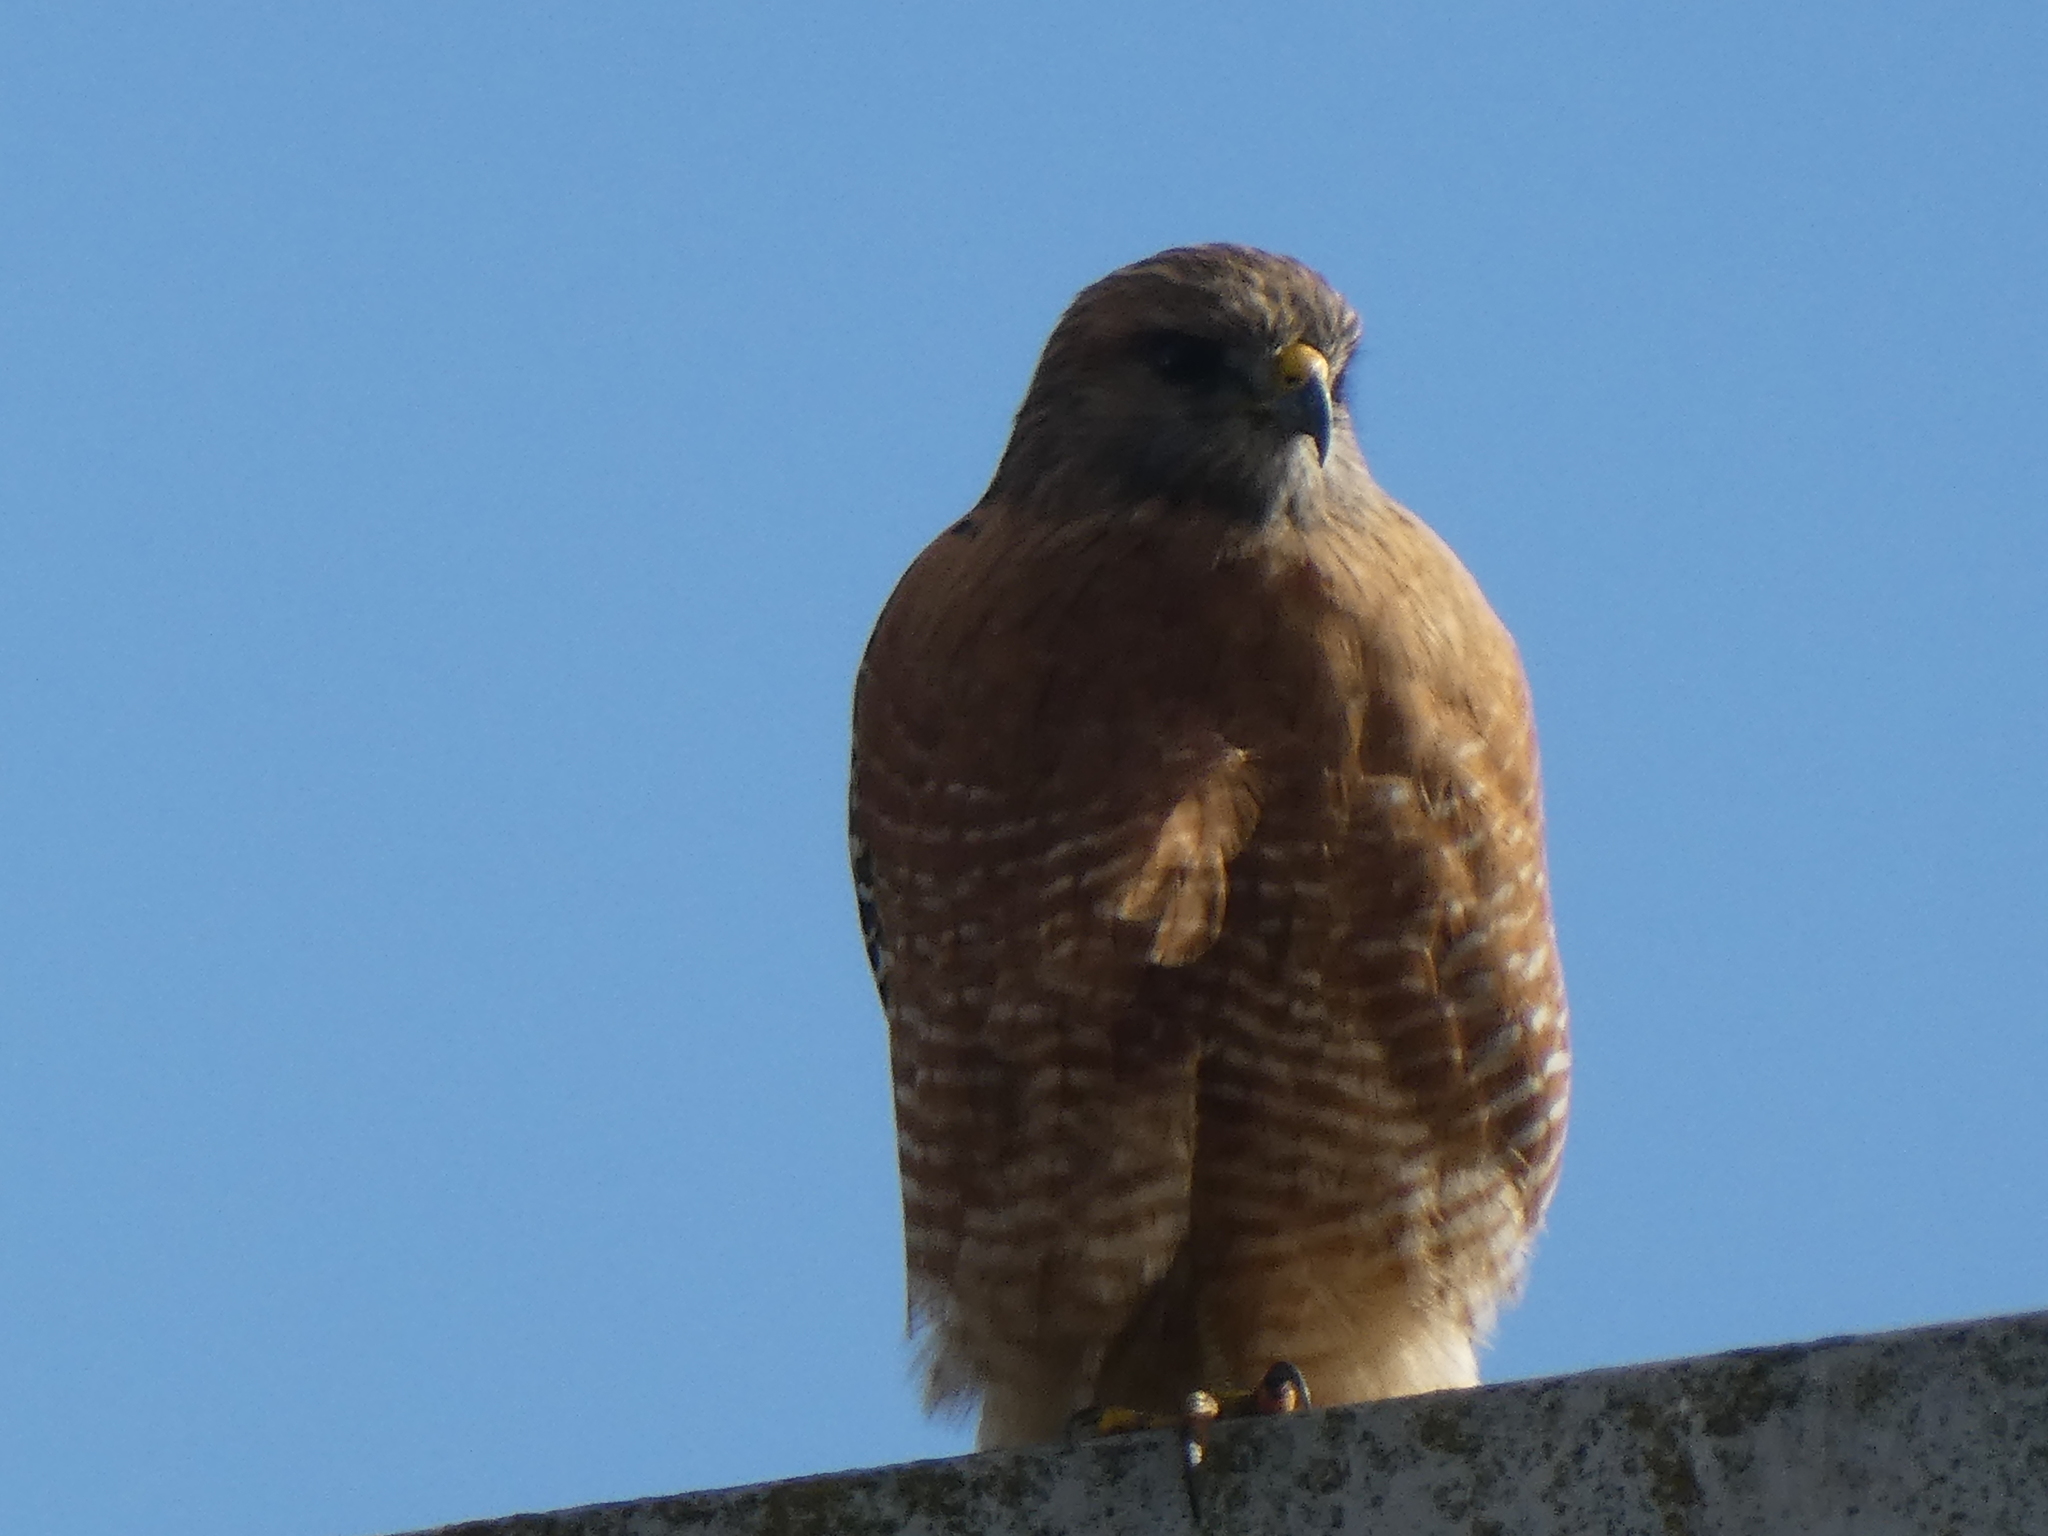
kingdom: Animalia
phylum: Chordata
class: Aves
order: Accipitriformes
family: Accipitridae
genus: Buteo
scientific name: Buteo lineatus
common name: Red-shouldered hawk
